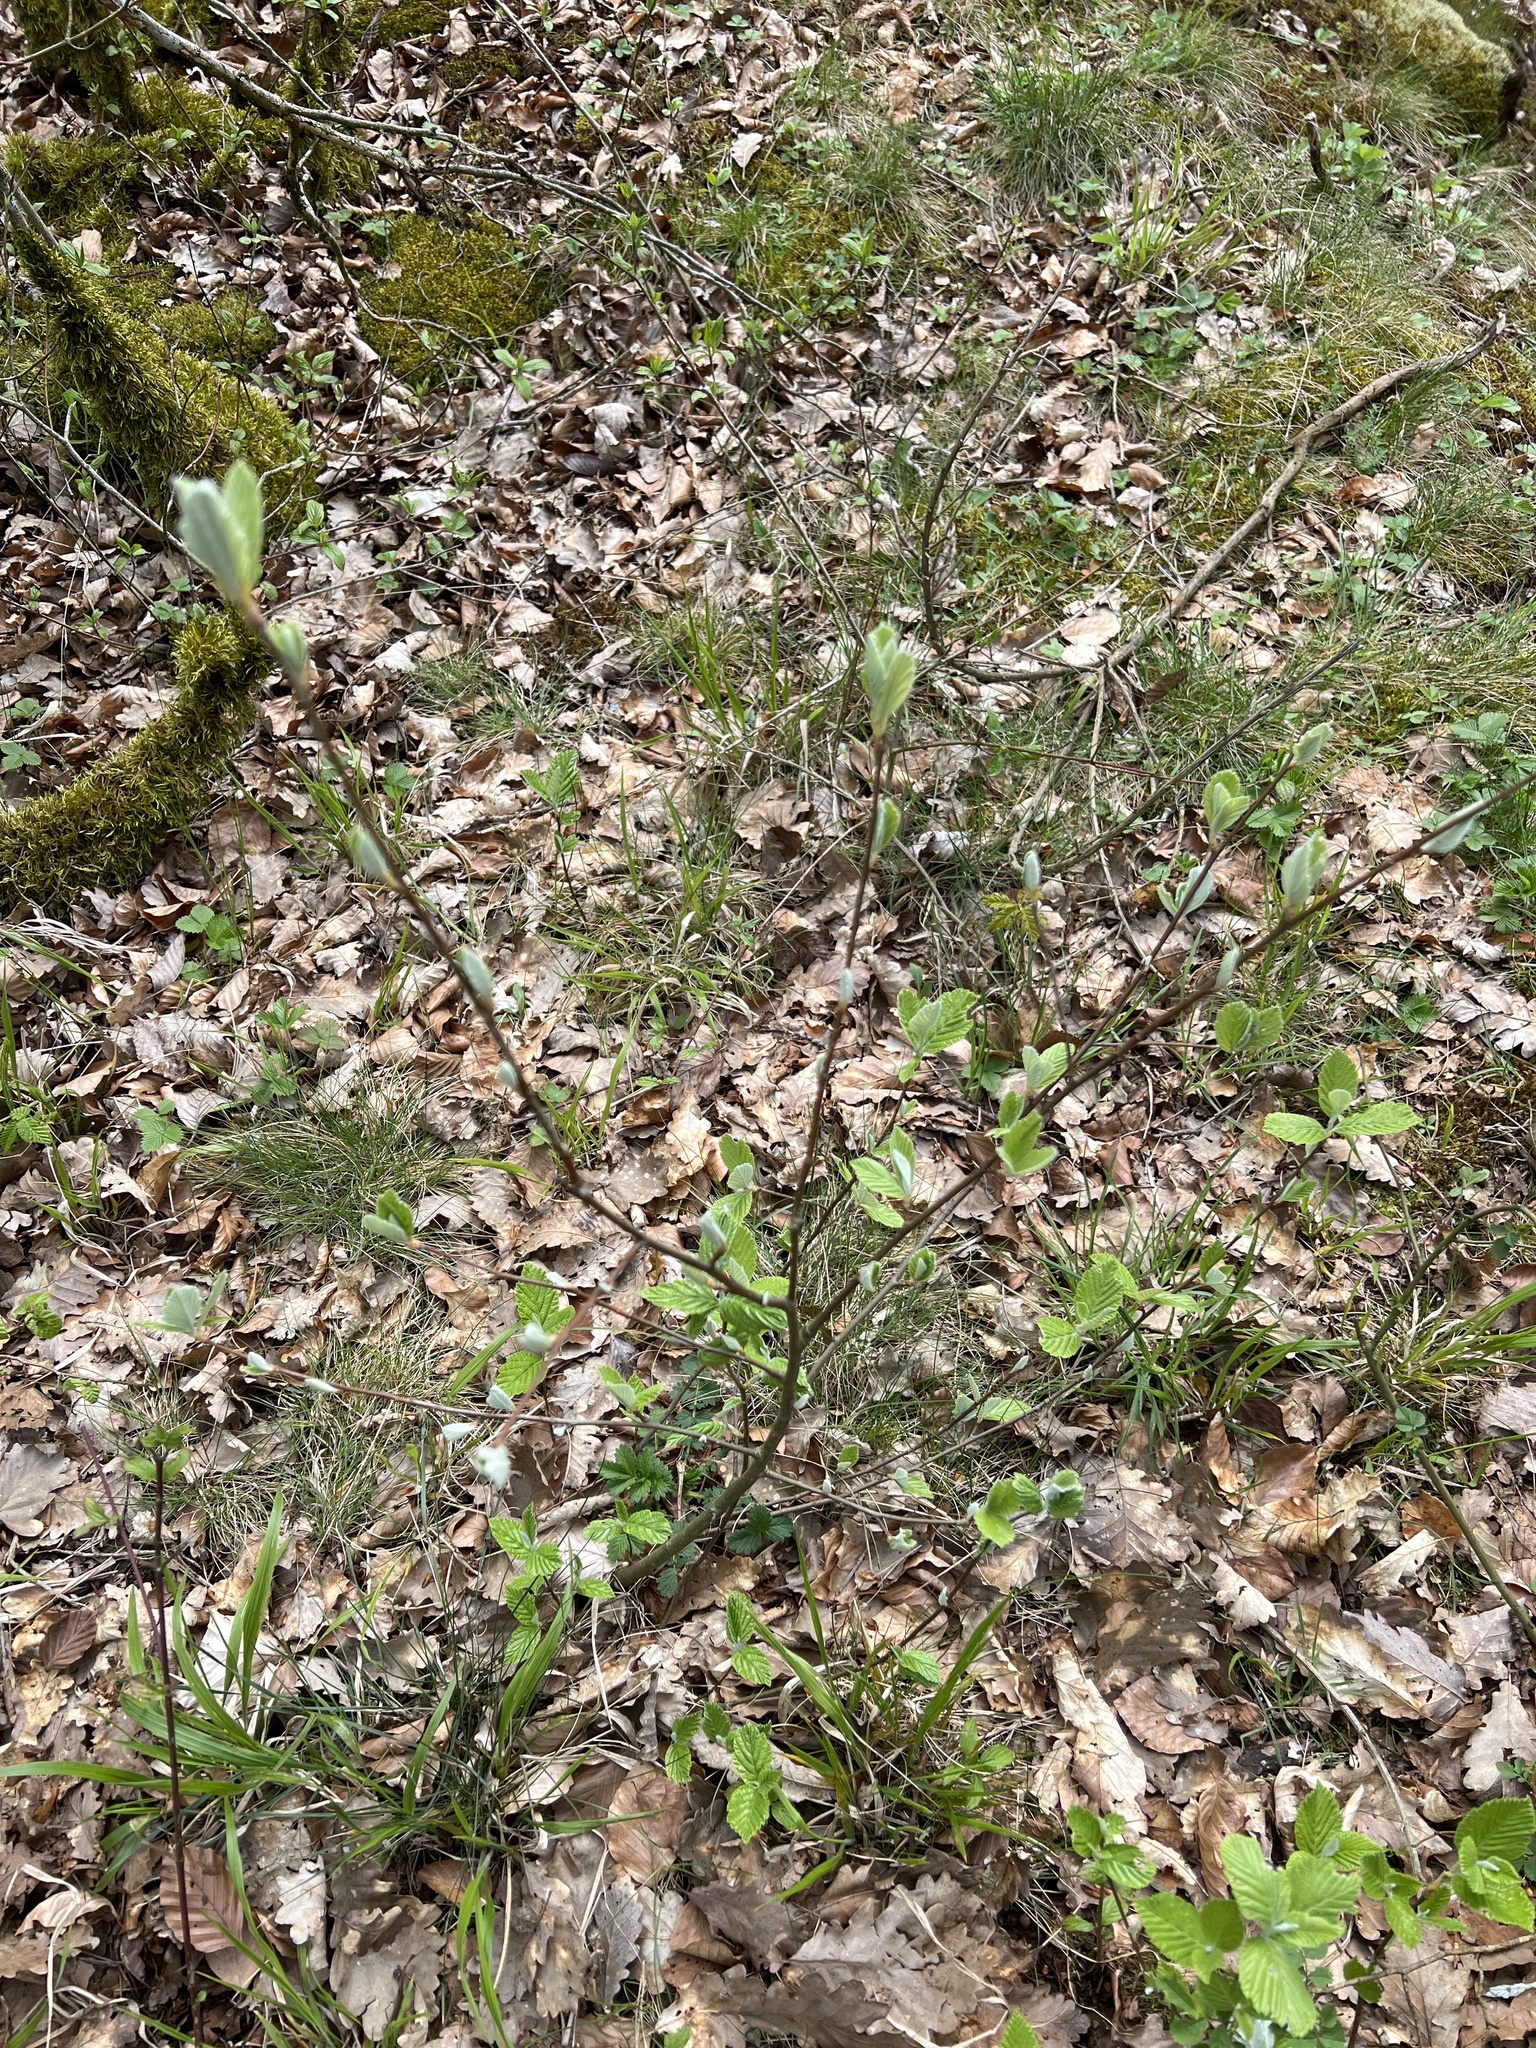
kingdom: Plantae
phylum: Tracheophyta
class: Magnoliopsida
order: Rosales
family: Rosaceae
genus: Aria
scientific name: Aria edulis
